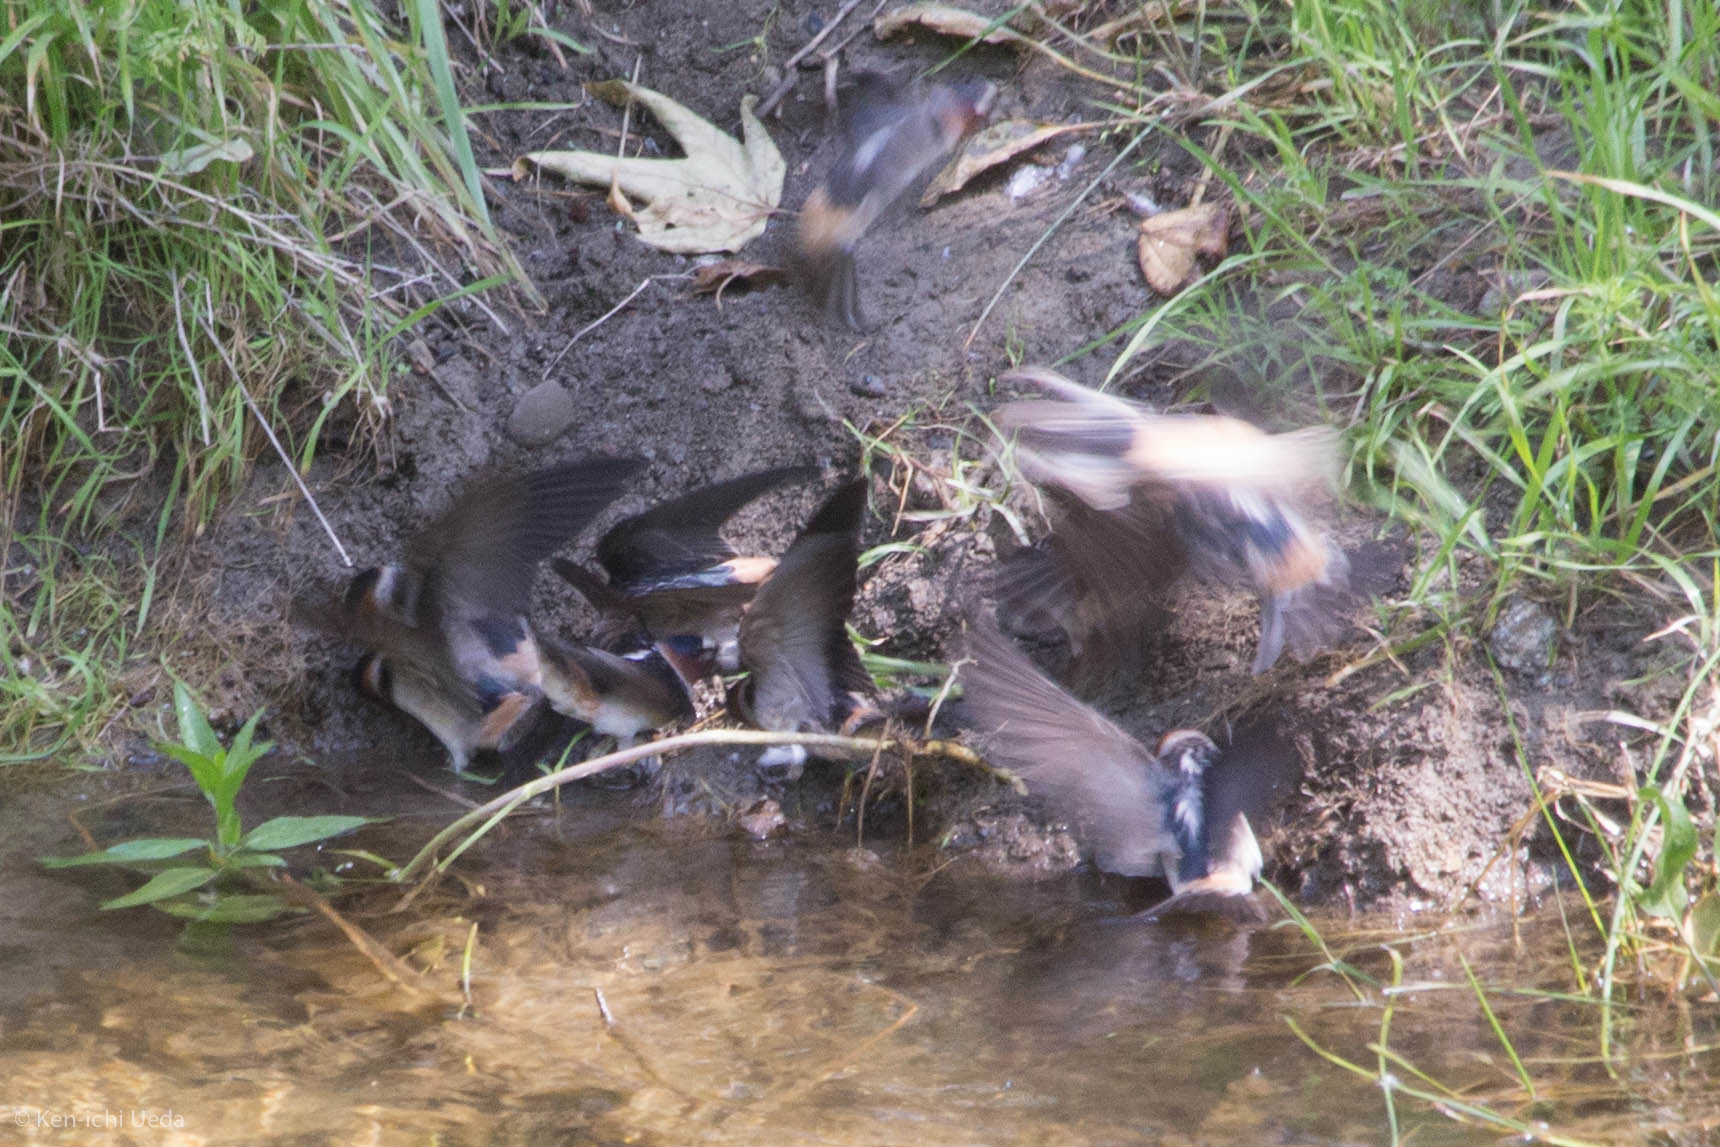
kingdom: Animalia
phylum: Chordata
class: Aves
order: Passeriformes
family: Hirundinidae
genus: Petrochelidon
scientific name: Petrochelidon pyrrhonota
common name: American cliff swallow
